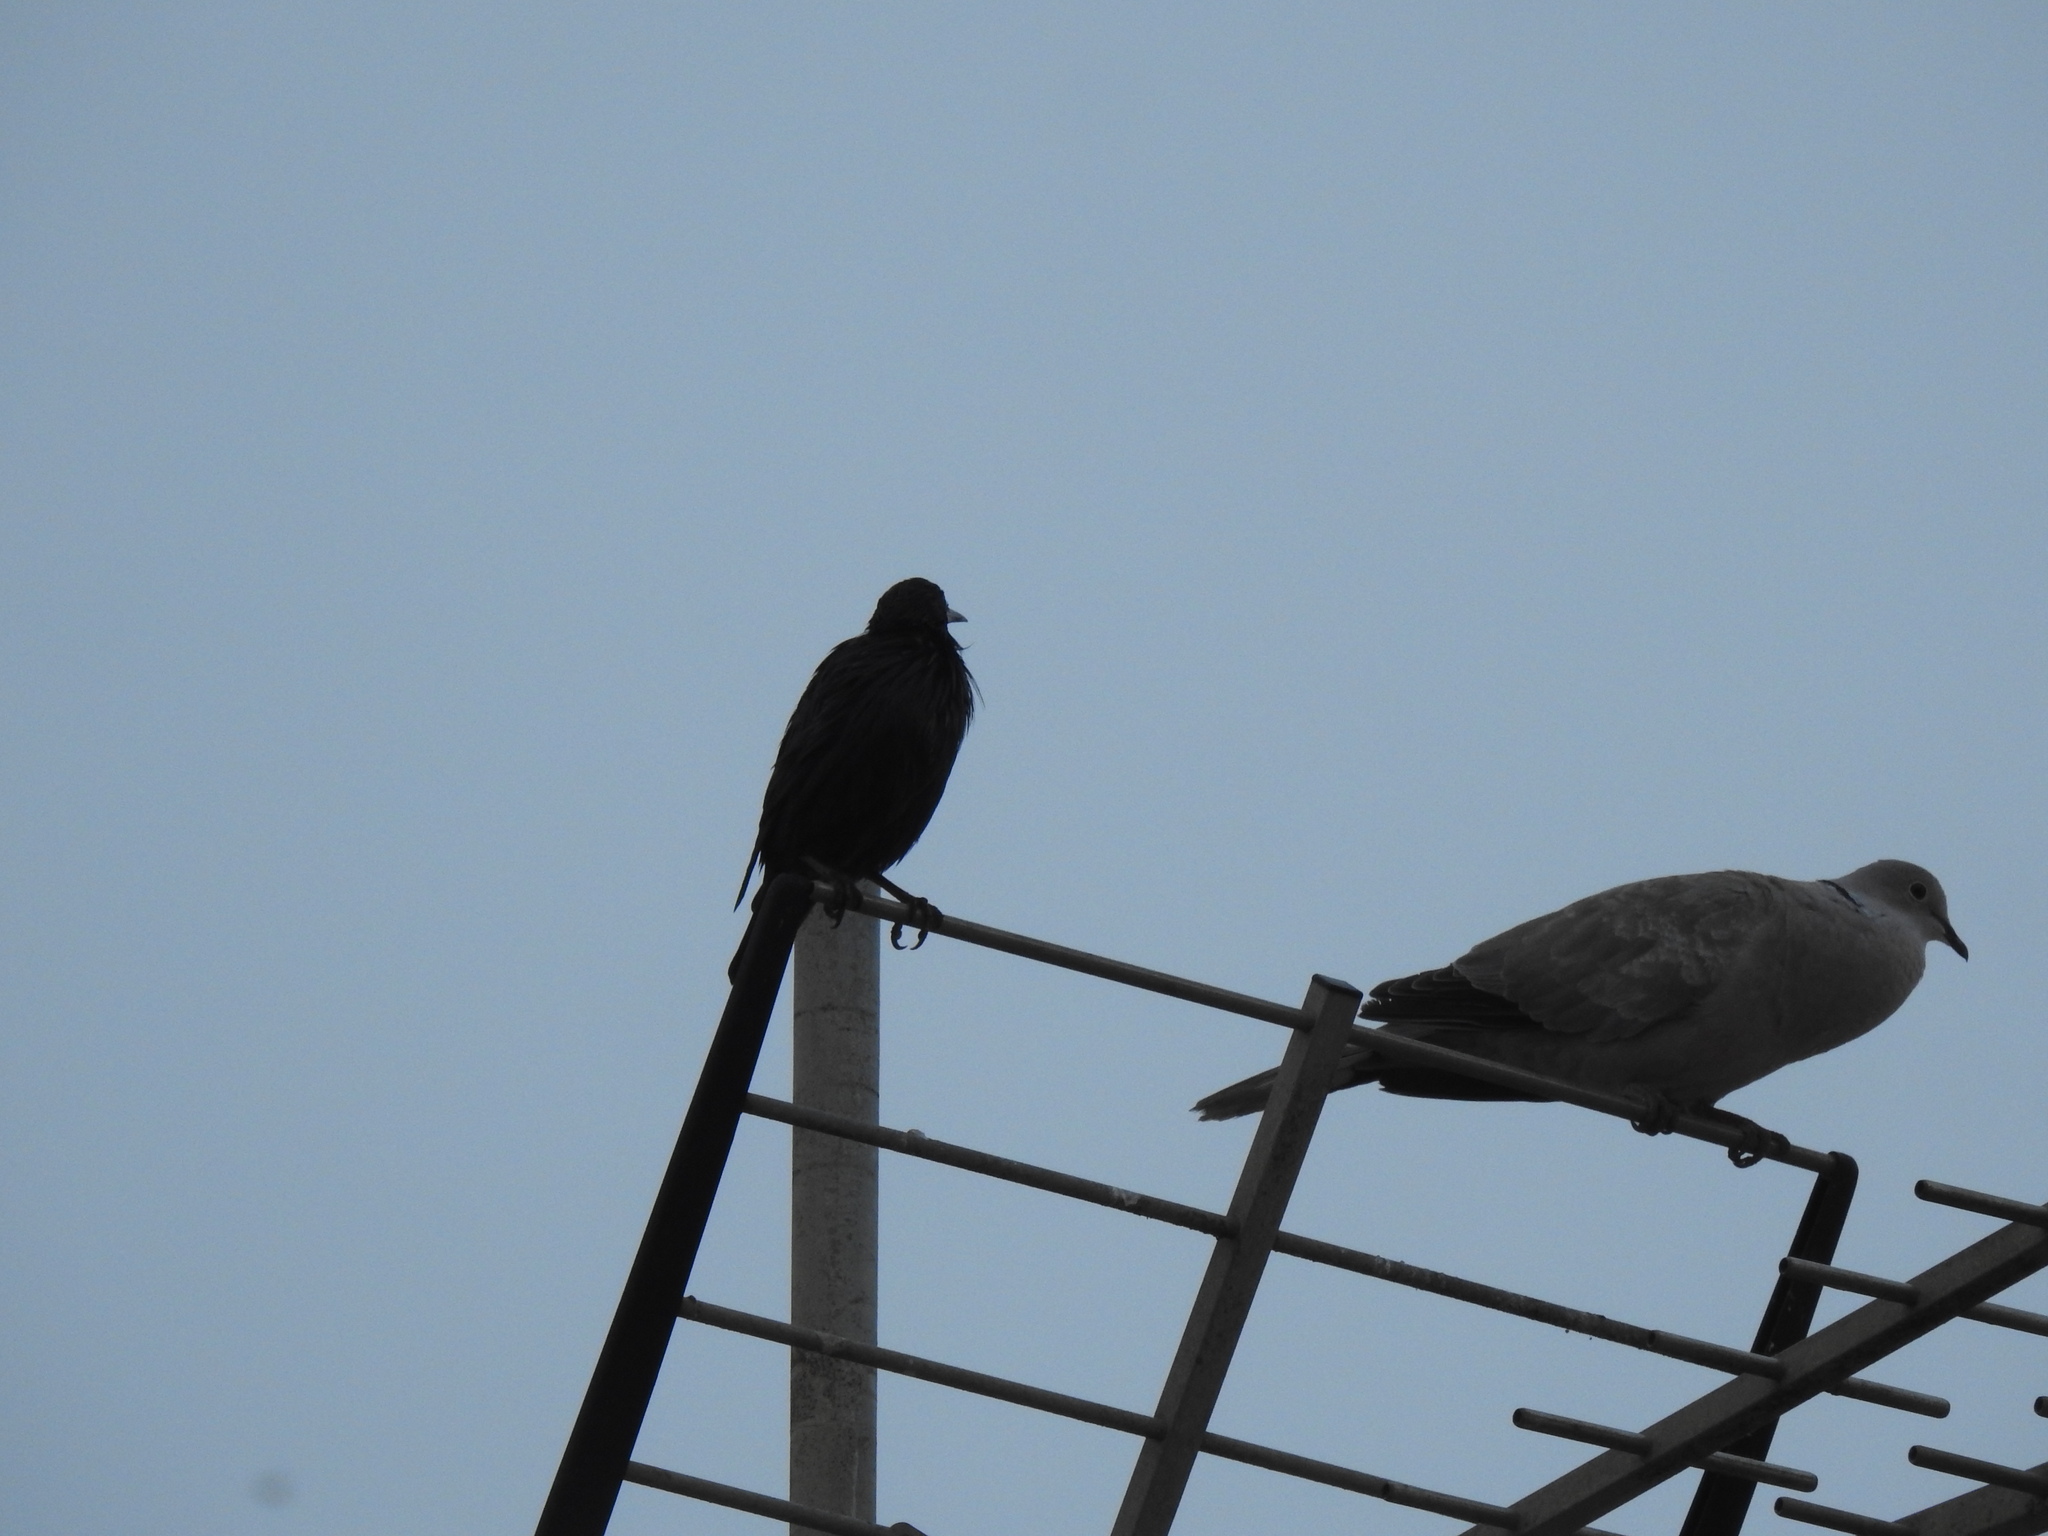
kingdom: Animalia
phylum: Chordata
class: Aves
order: Columbiformes
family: Columbidae
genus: Streptopelia
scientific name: Streptopelia decaocto
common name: Eurasian collared dove
